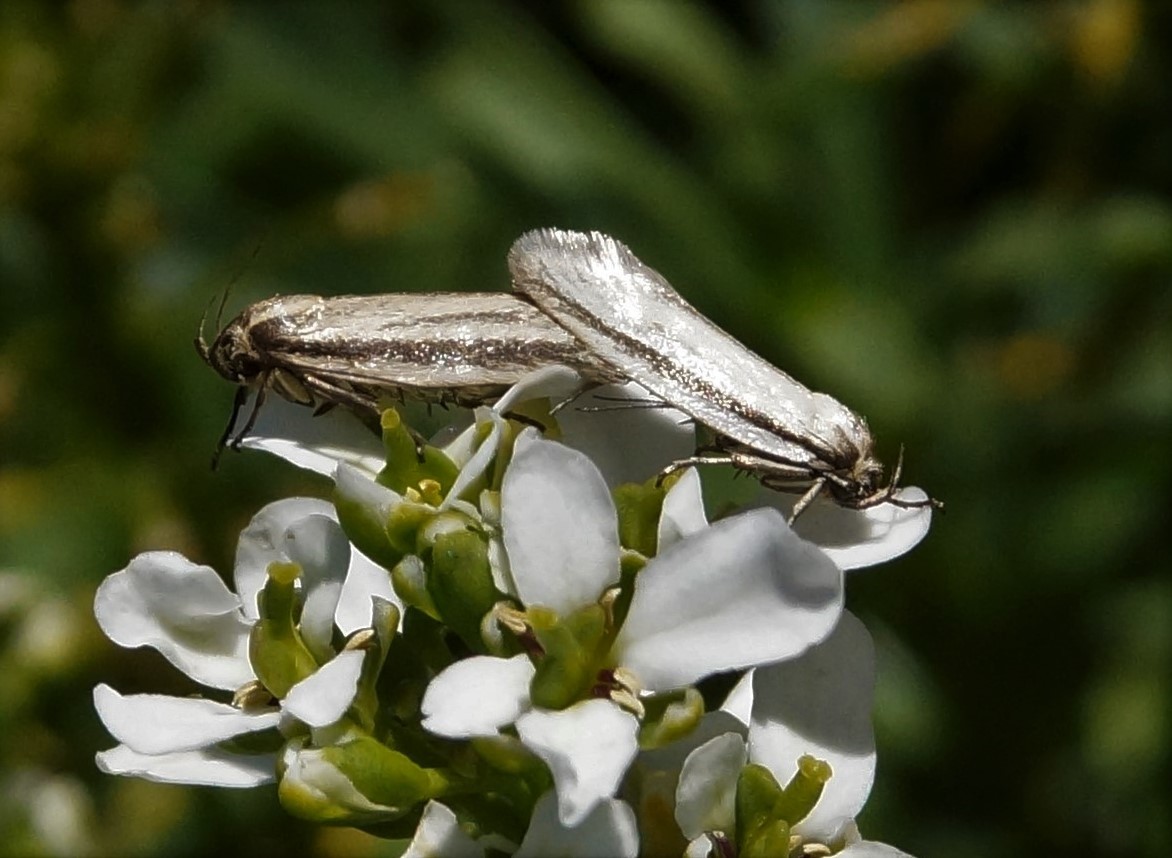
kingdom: Animalia
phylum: Arthropoda
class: Insecta
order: Lepidoptera
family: Oecophoridae
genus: Philobota
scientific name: Philobota pilipes
